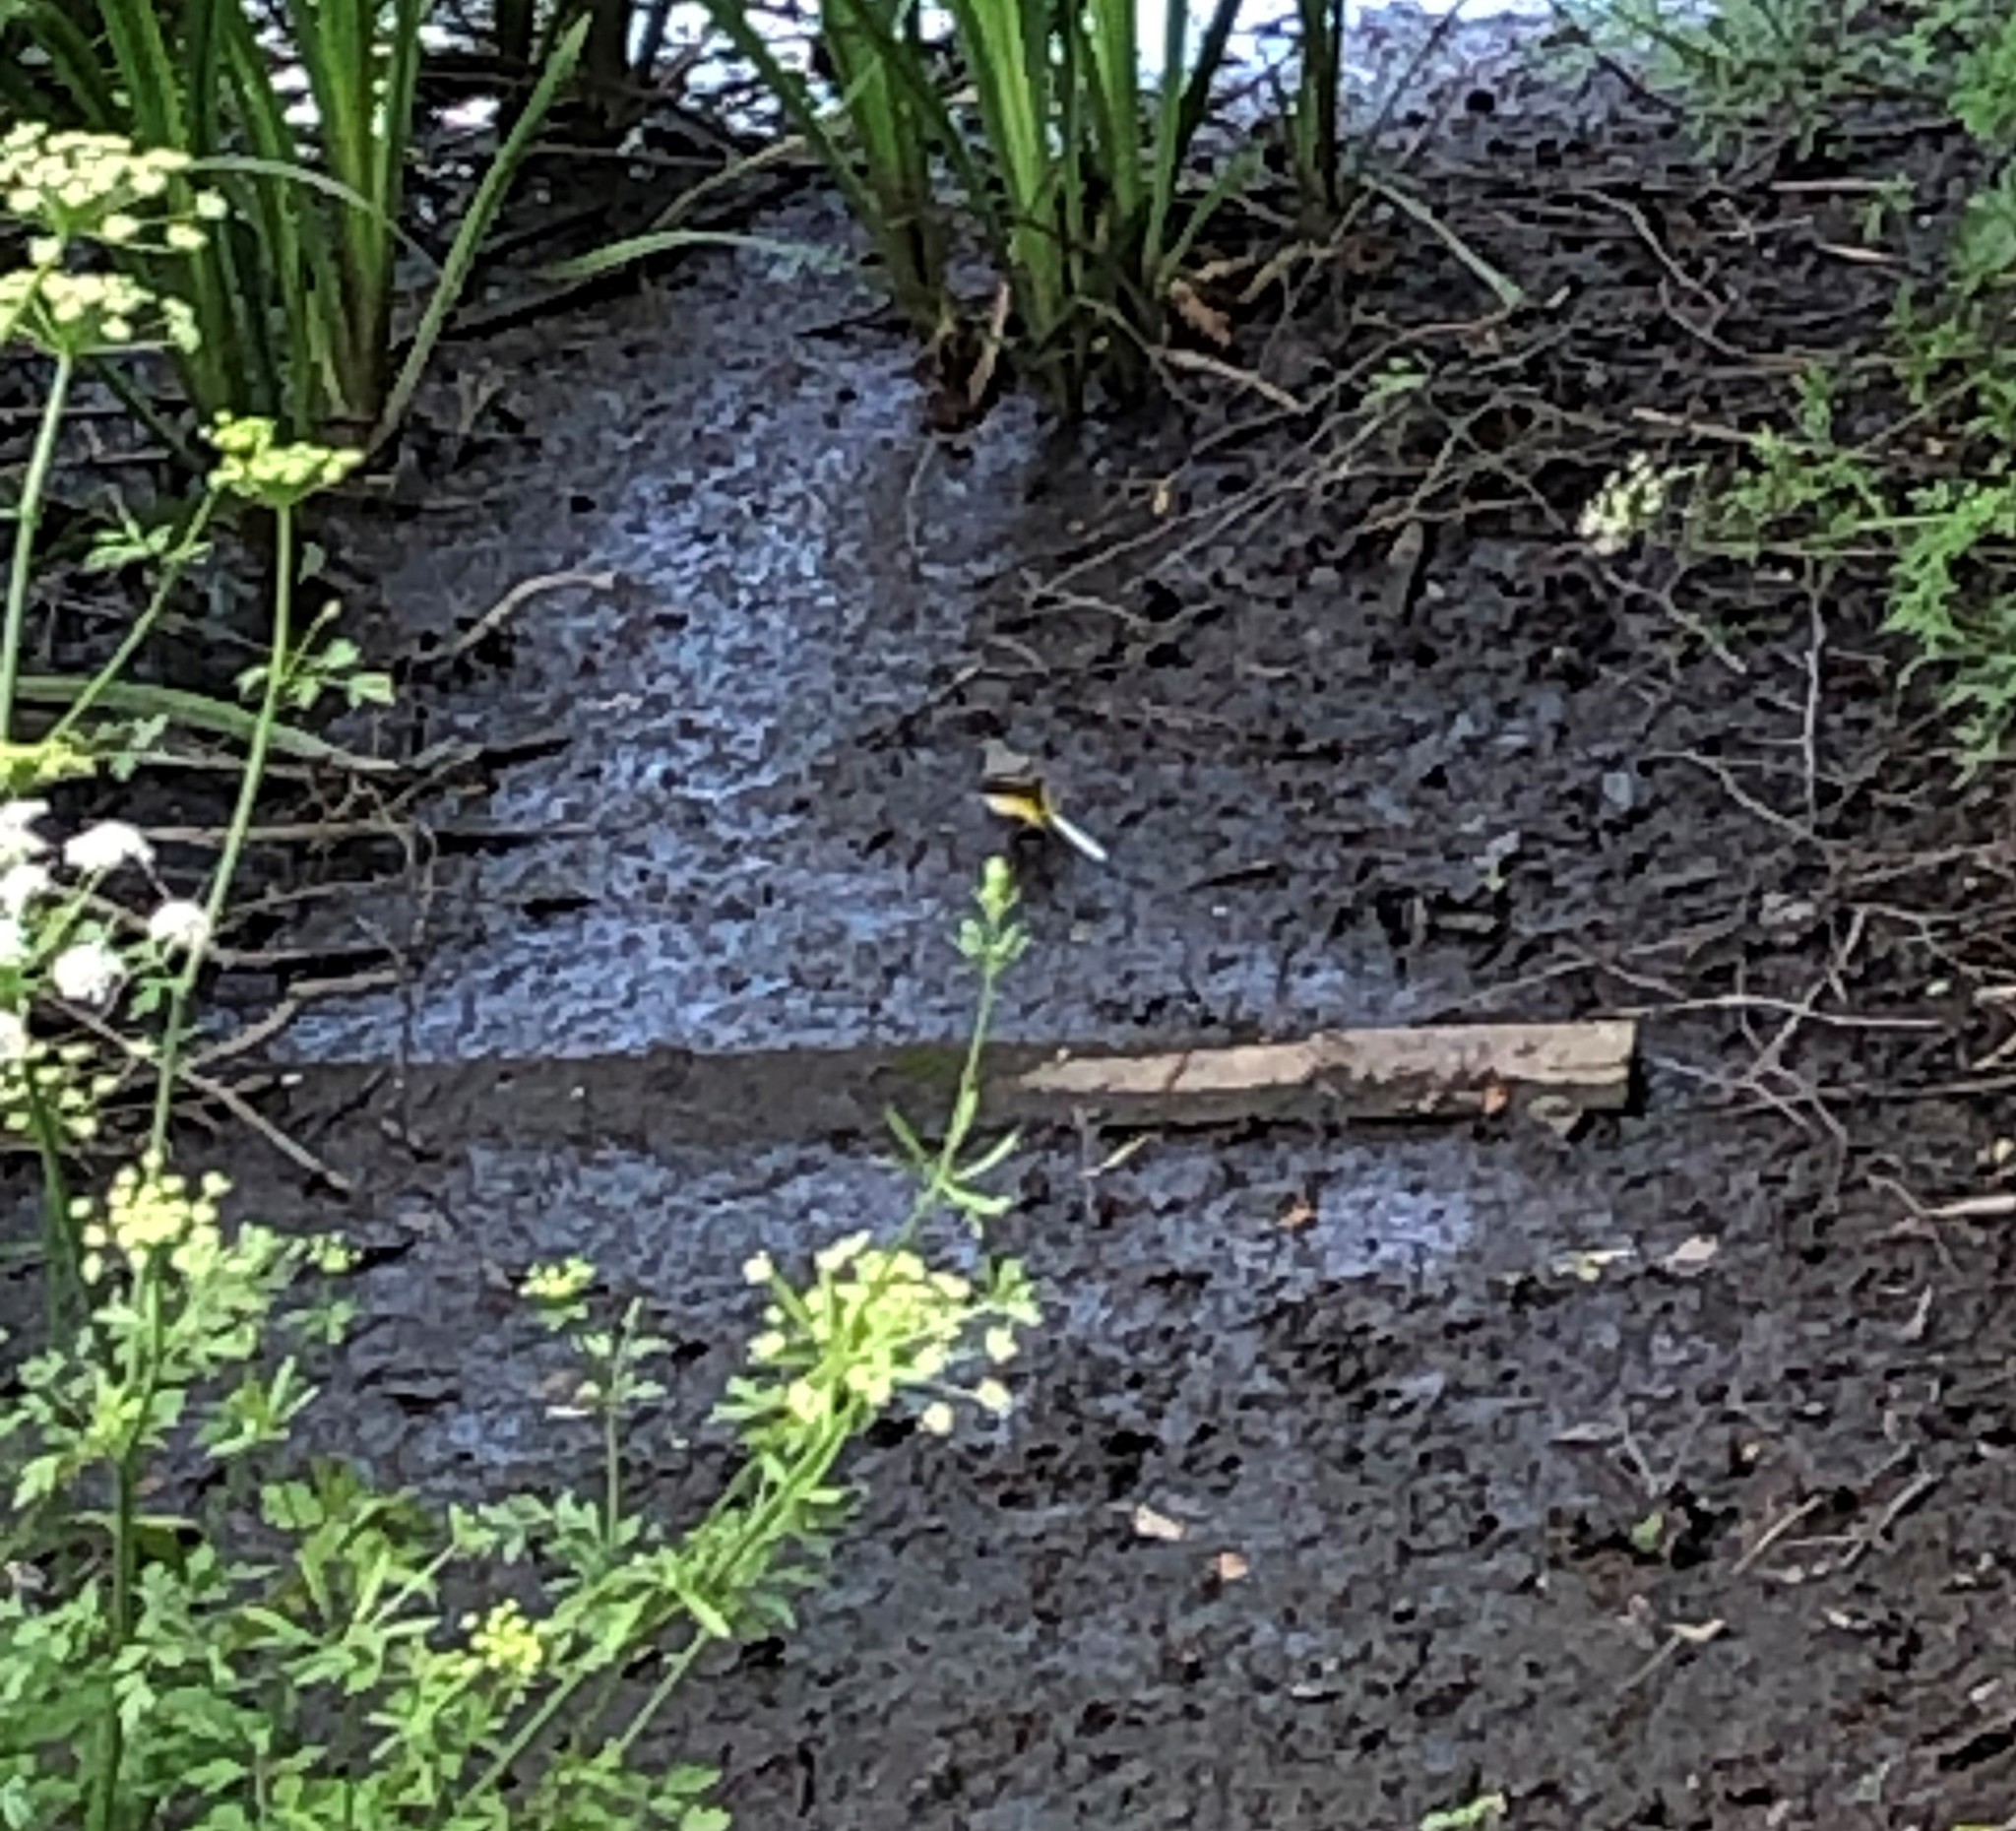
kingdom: Animalia
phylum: Chordata
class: Aves
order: Passeriformes
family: Motacillidae
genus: Motacilla
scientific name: Motacilla cinerea
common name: Grey wagtail
